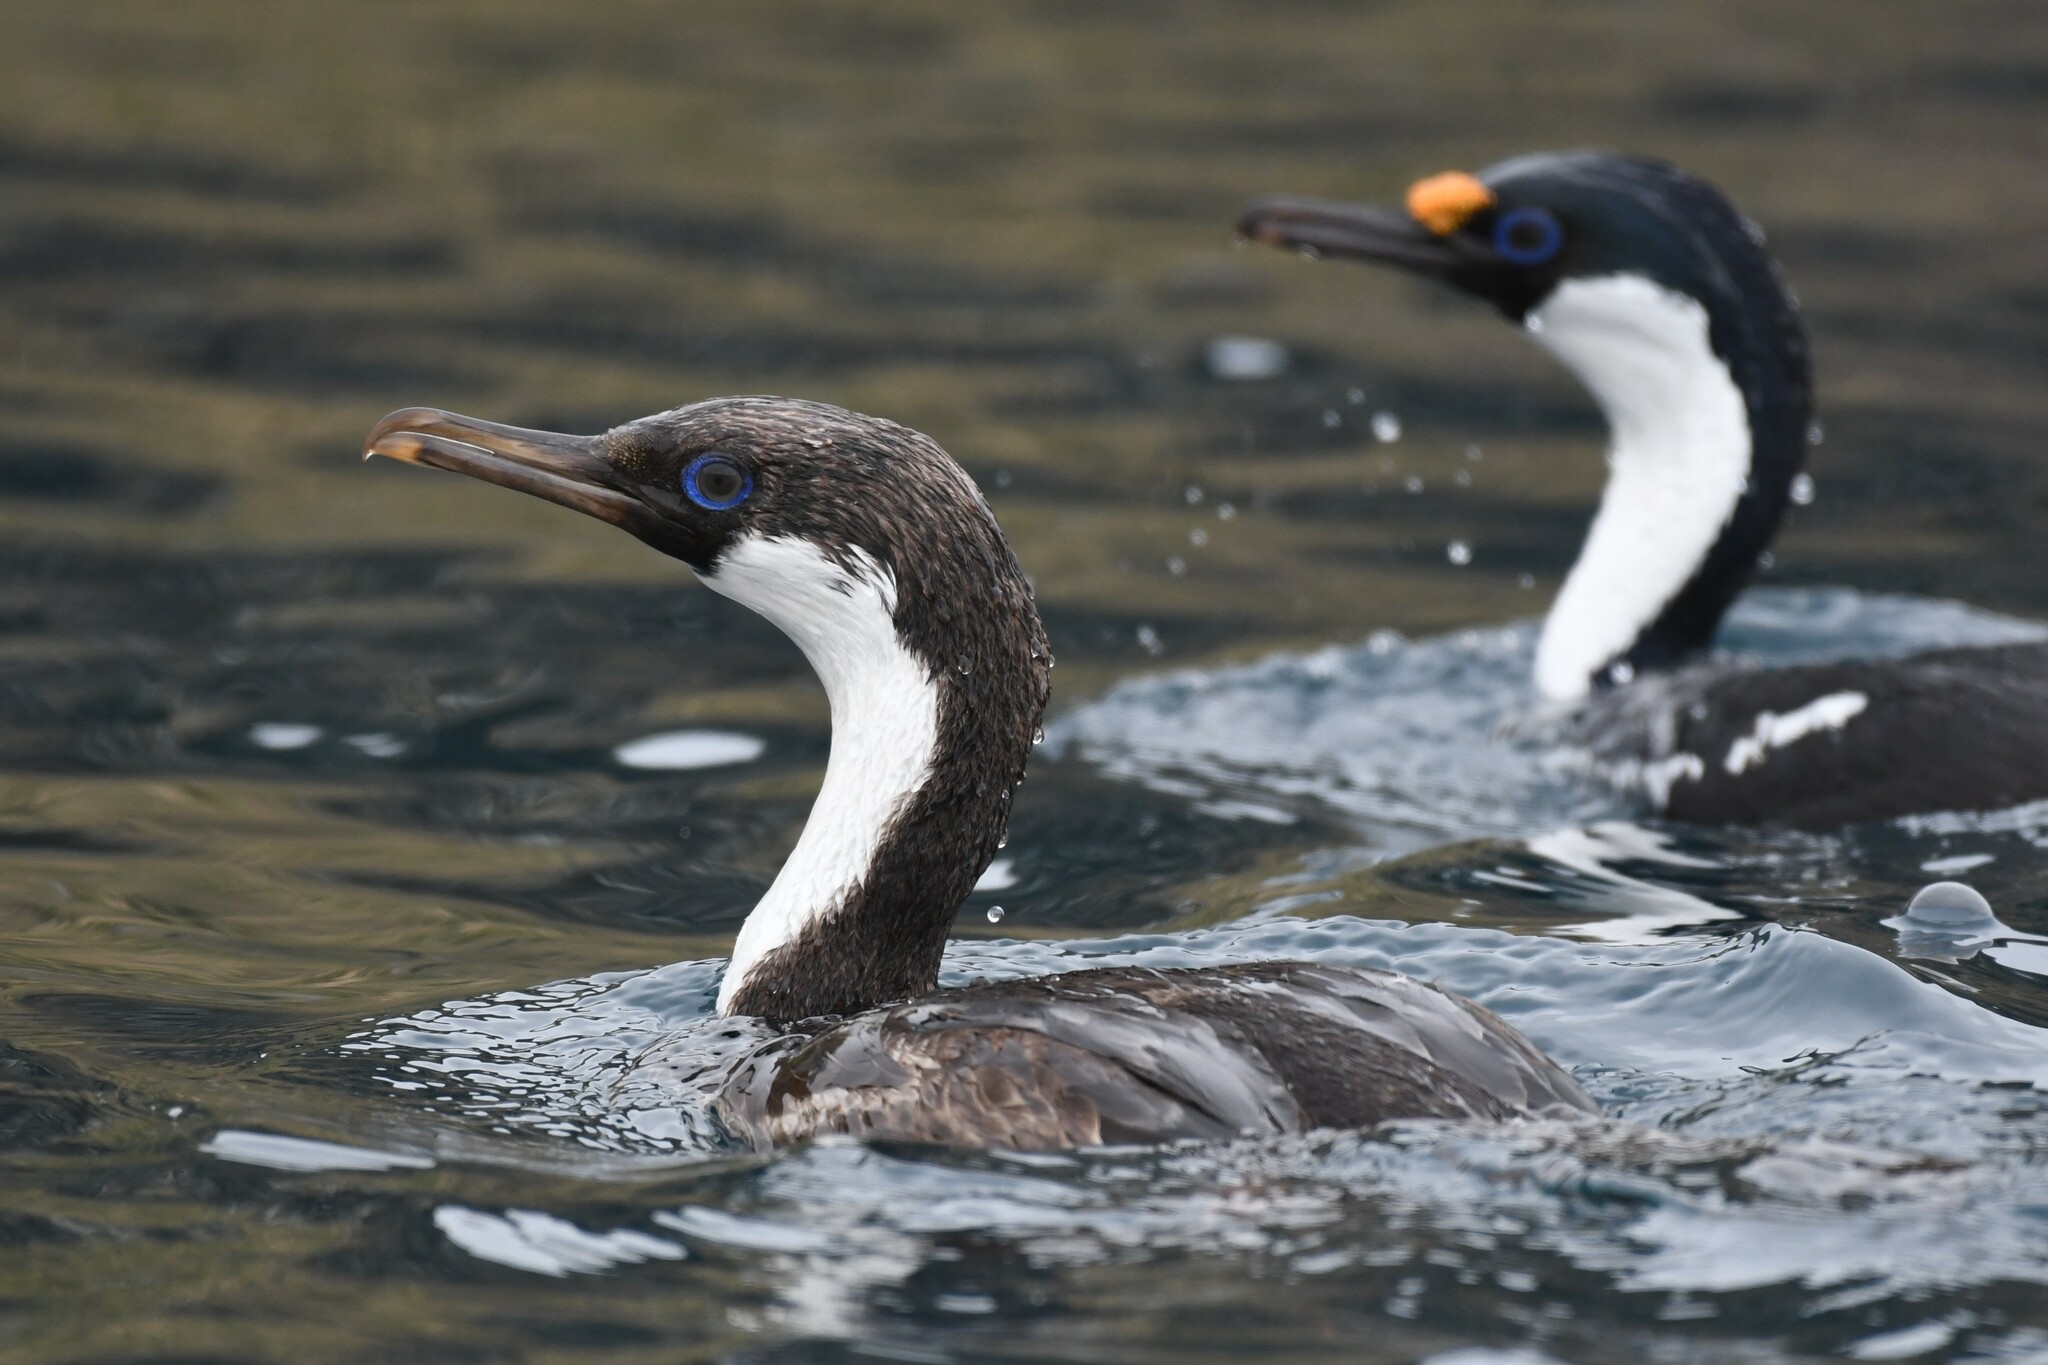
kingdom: Animalia
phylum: Chordata
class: Aves
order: Suliformes
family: Phalacrocoracidae
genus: Leucocarbo
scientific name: Leucocarbo atriceps
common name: Imperial shag
